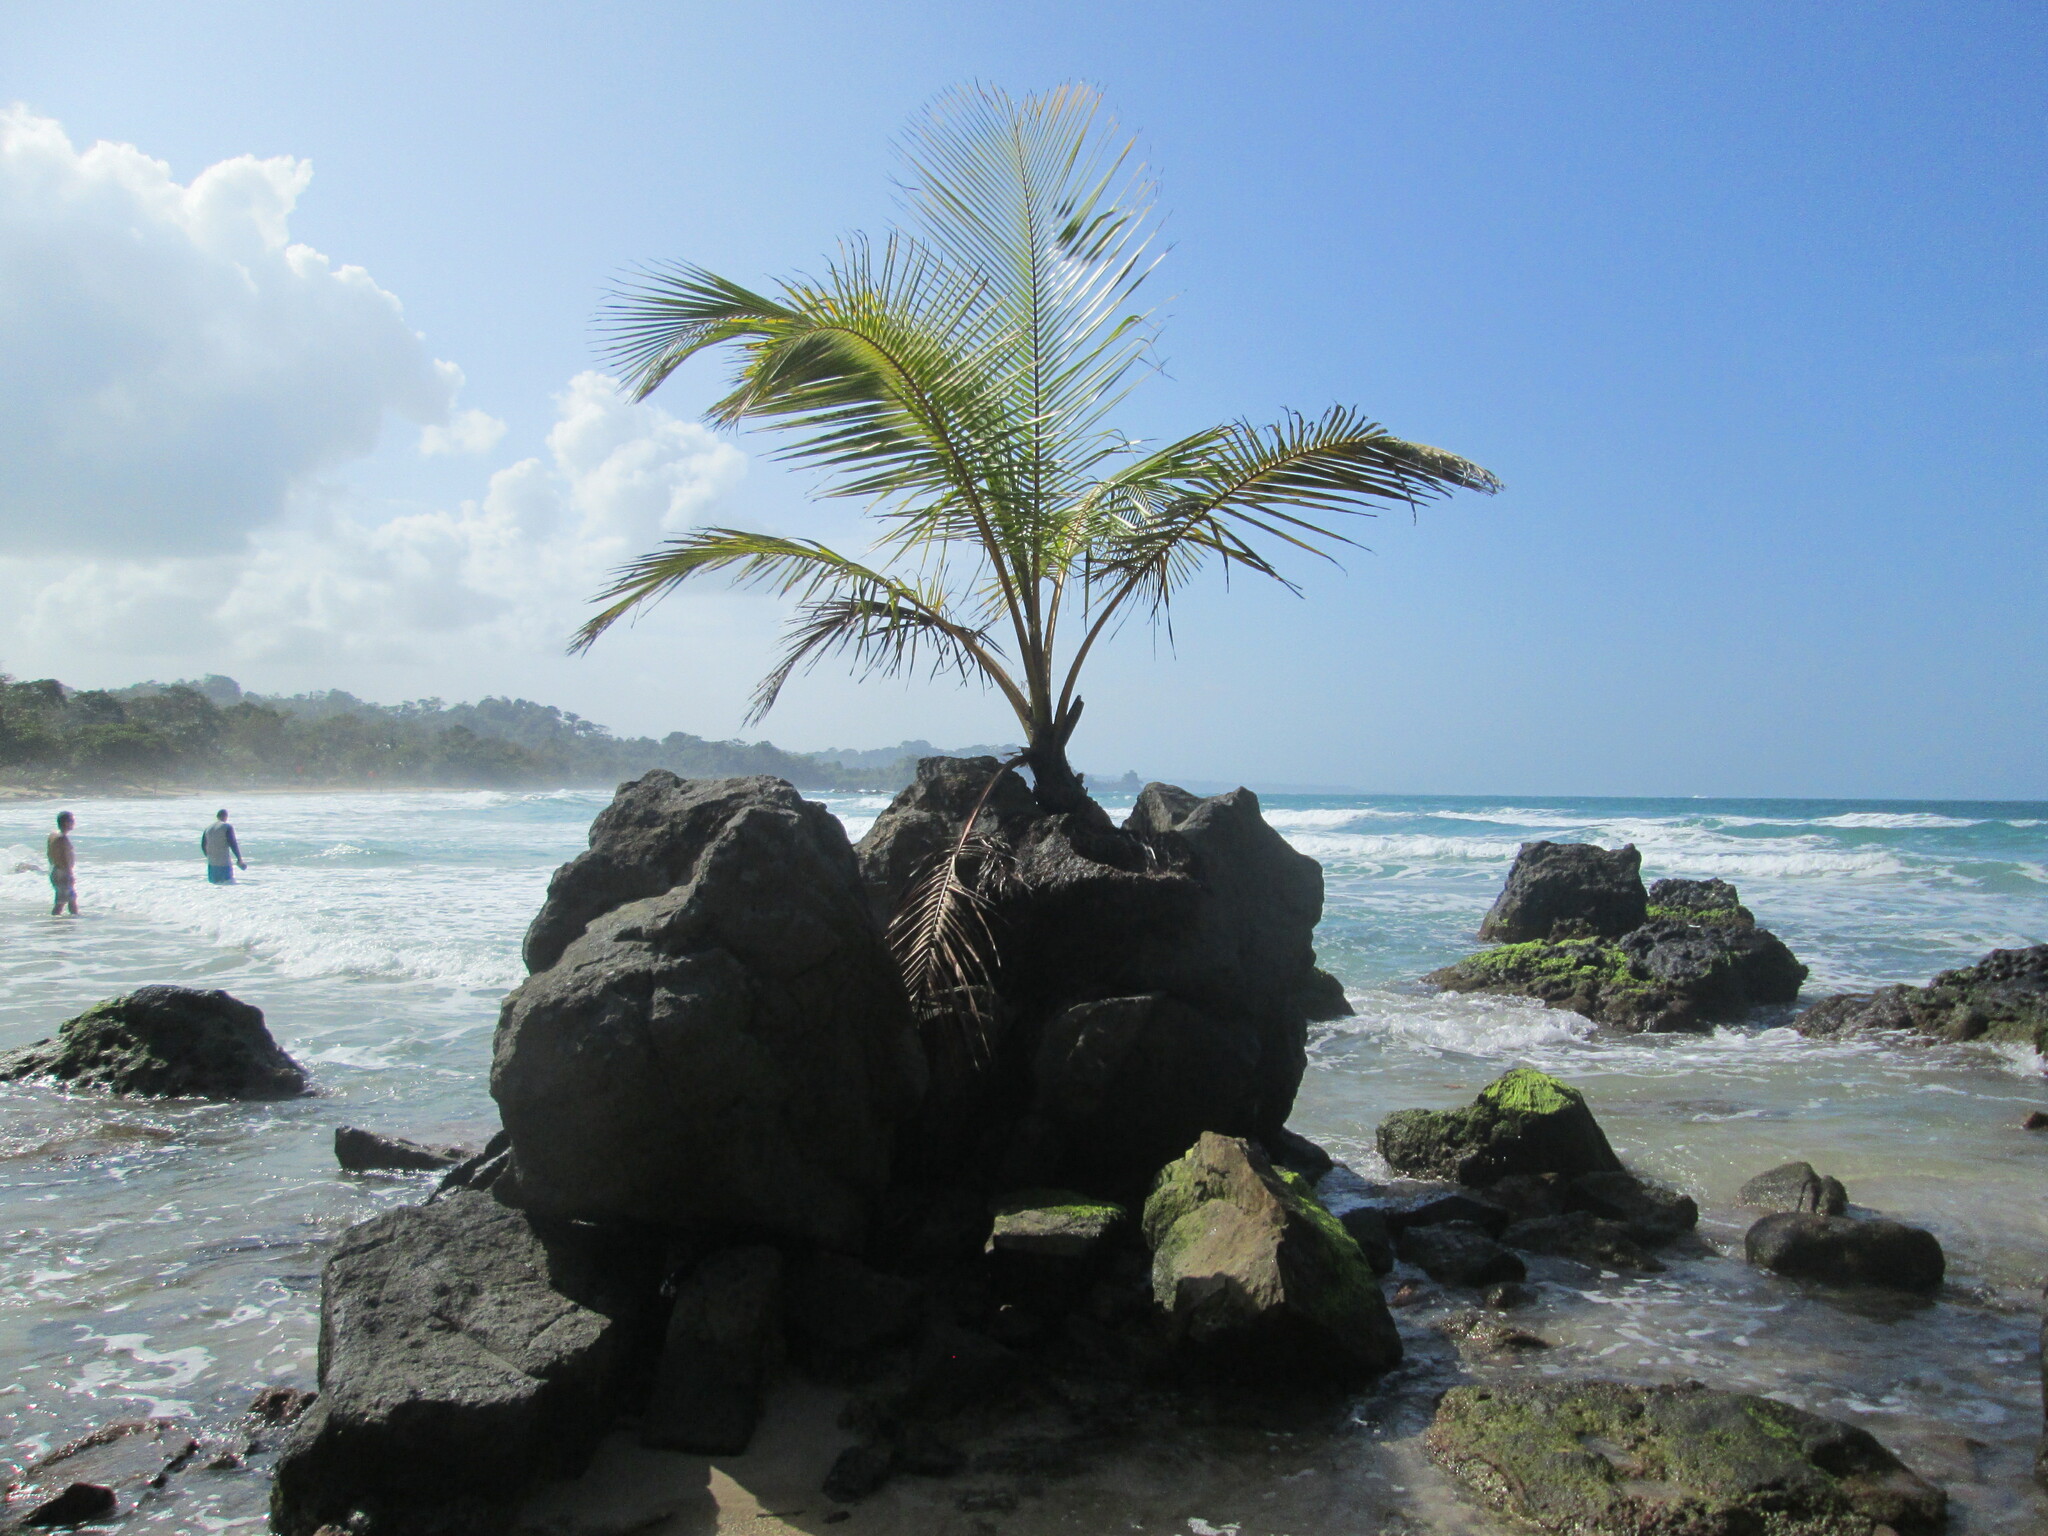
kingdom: Plantae
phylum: Tracheophyta
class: Liliopsida
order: Arecales
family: Arecaceae
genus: Cocos
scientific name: Cocos nucifera
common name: Coconut palm
